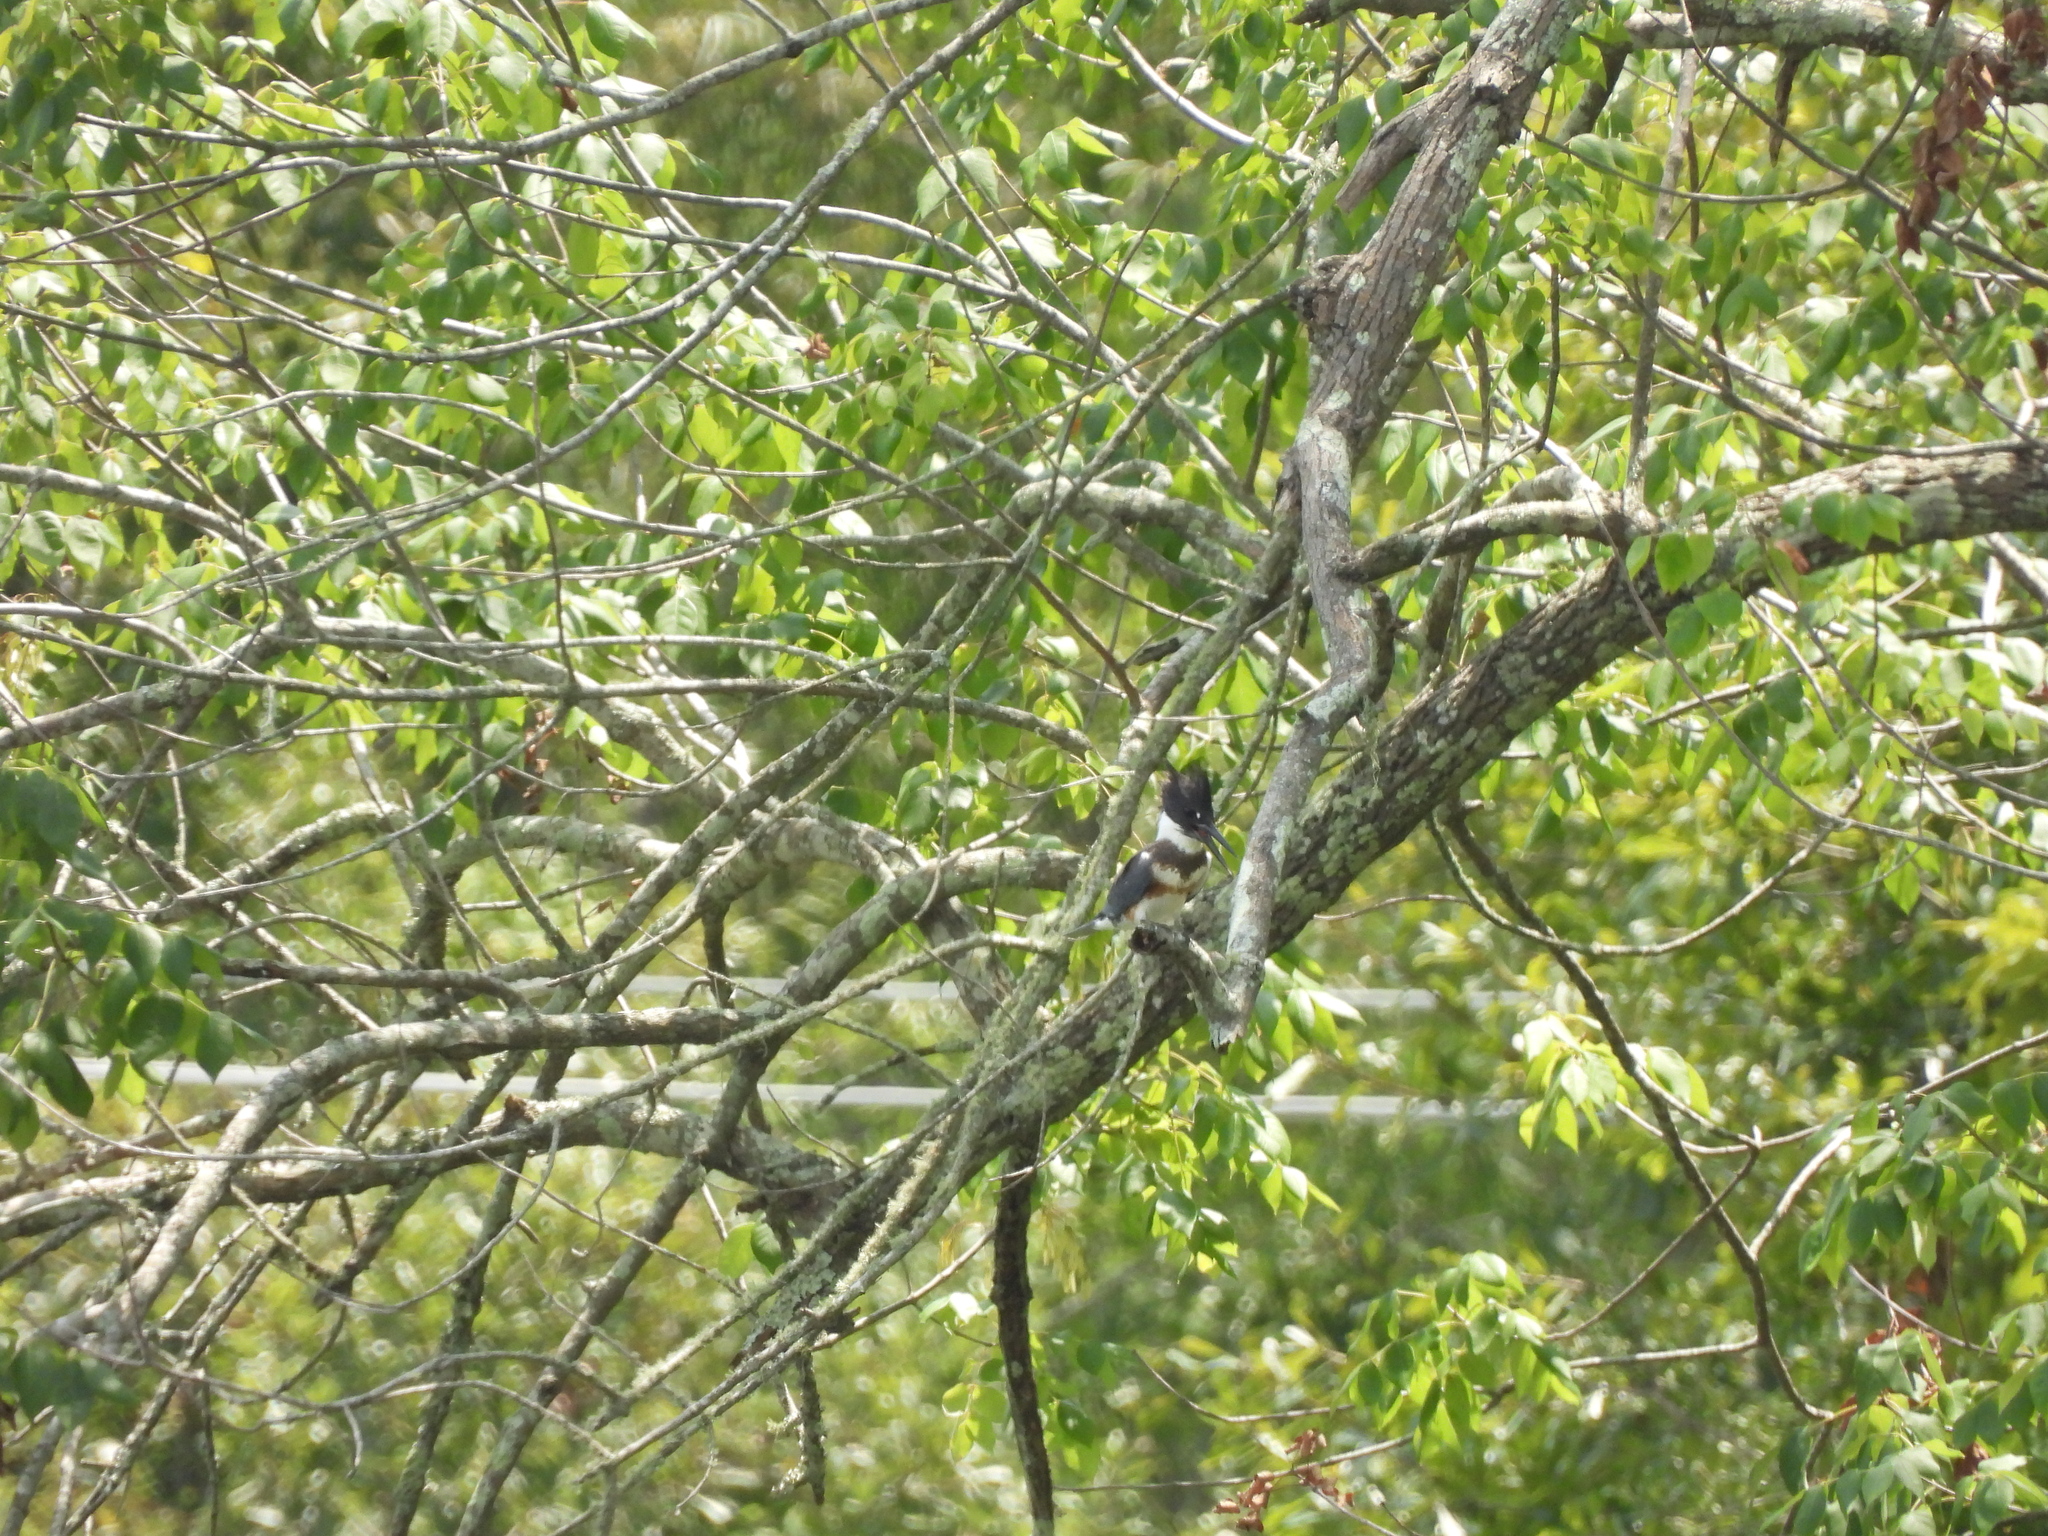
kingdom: Animalia
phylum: Chordata
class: Aves
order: Coraciiformes
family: Alcedinidae
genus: Megaceryle
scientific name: Megaceryle alcyon
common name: Belted kingfisher
